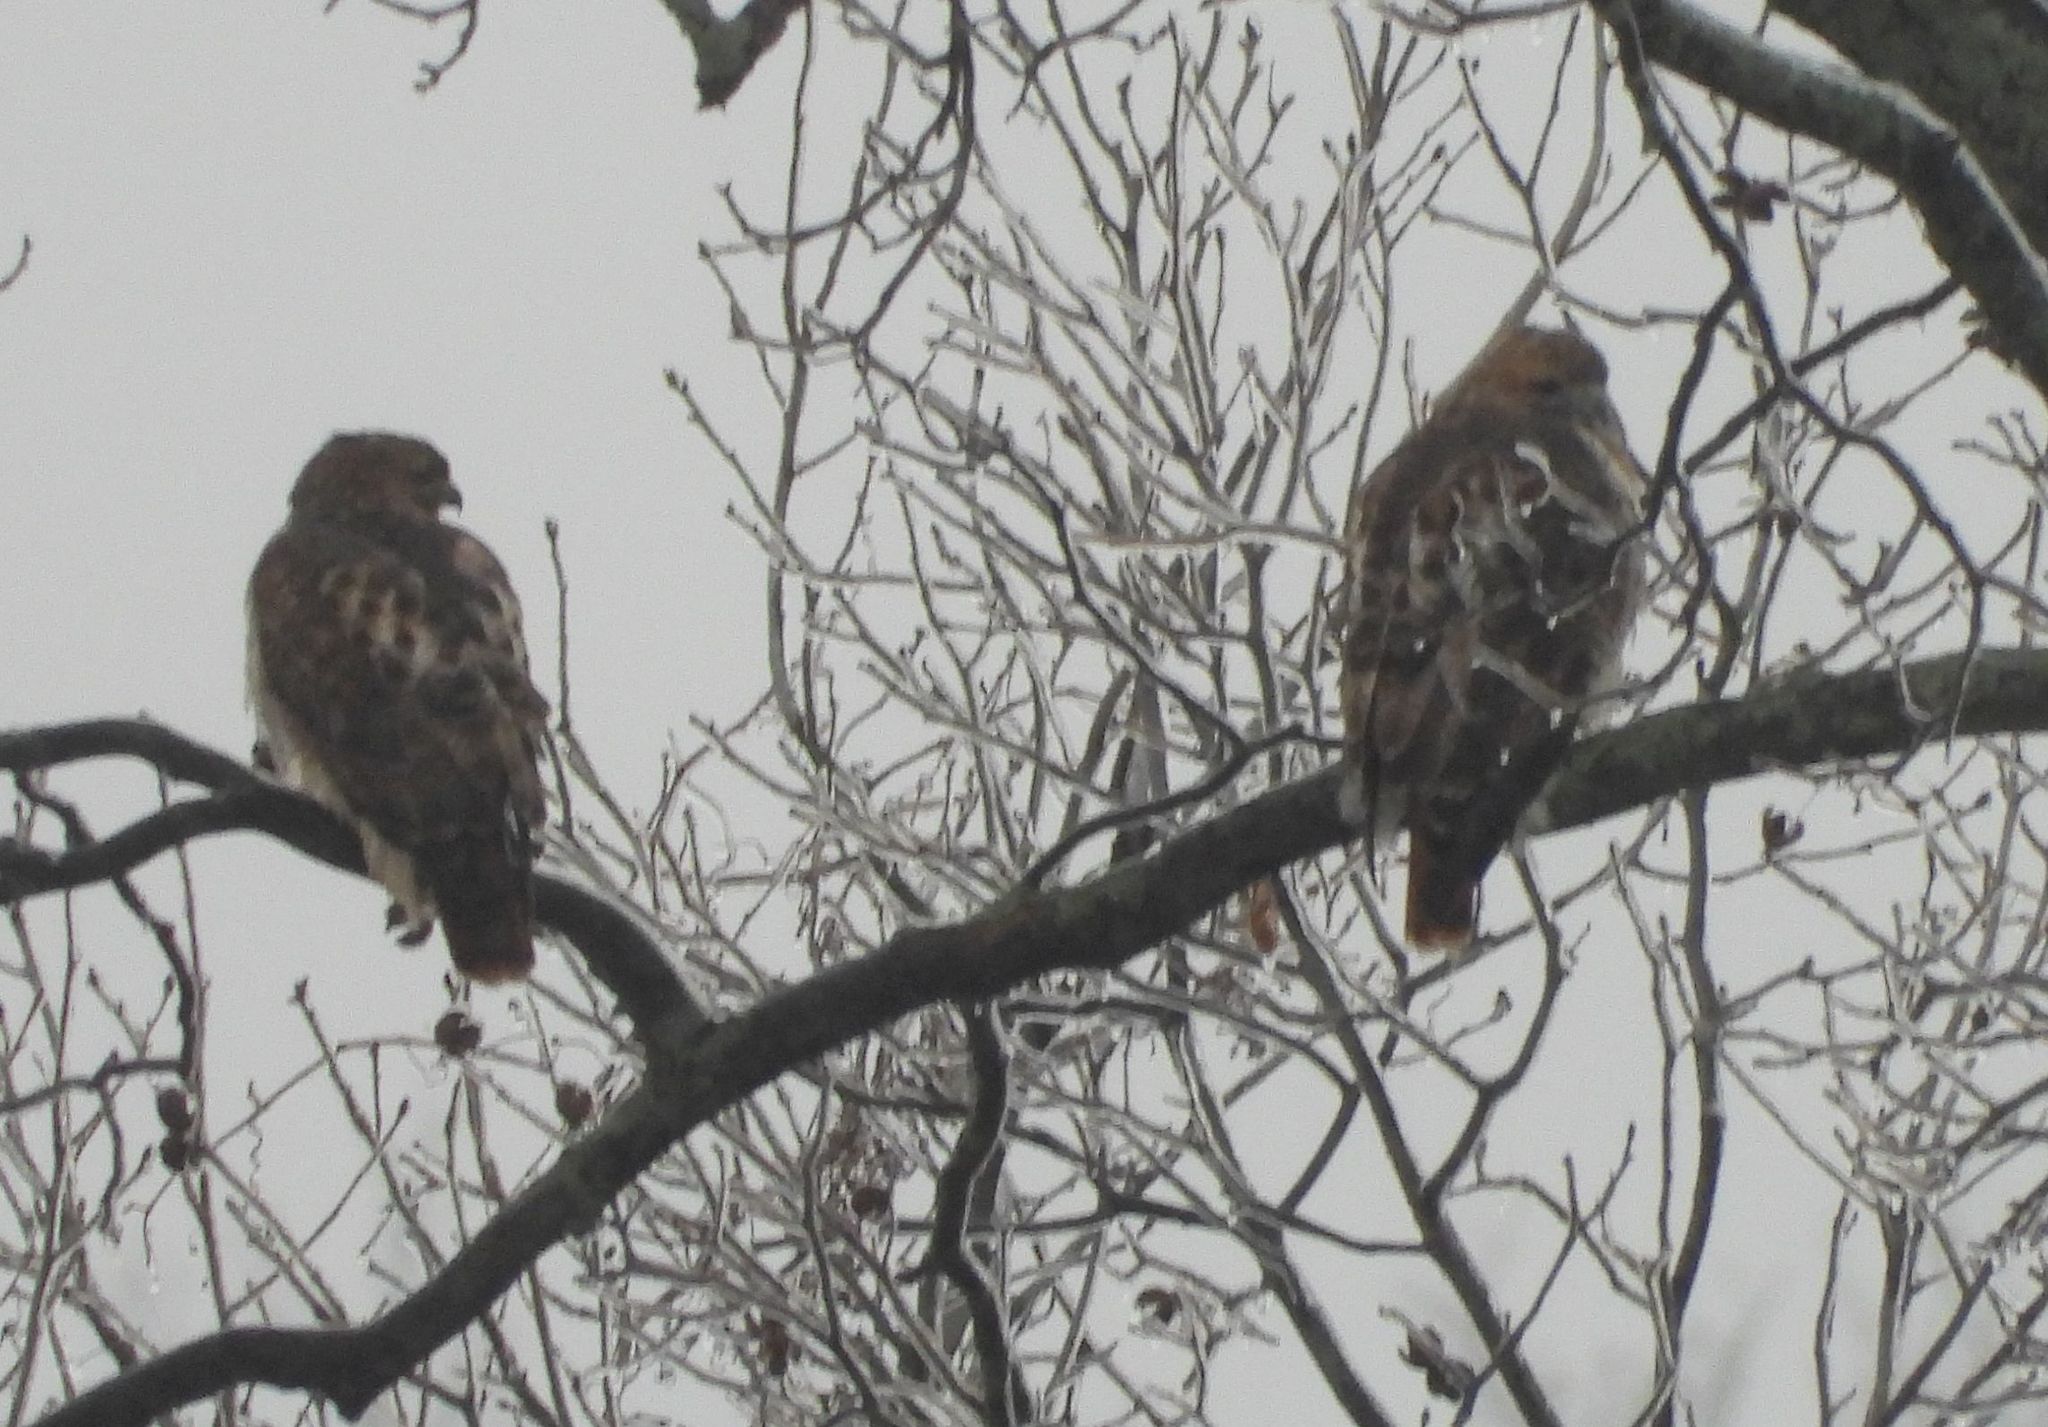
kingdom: Animalia
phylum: Chordata
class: Aves
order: Accipitriformes
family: Accipitridae
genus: Buteo
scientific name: Buteo jamaicensis
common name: Red-tailed hawk
